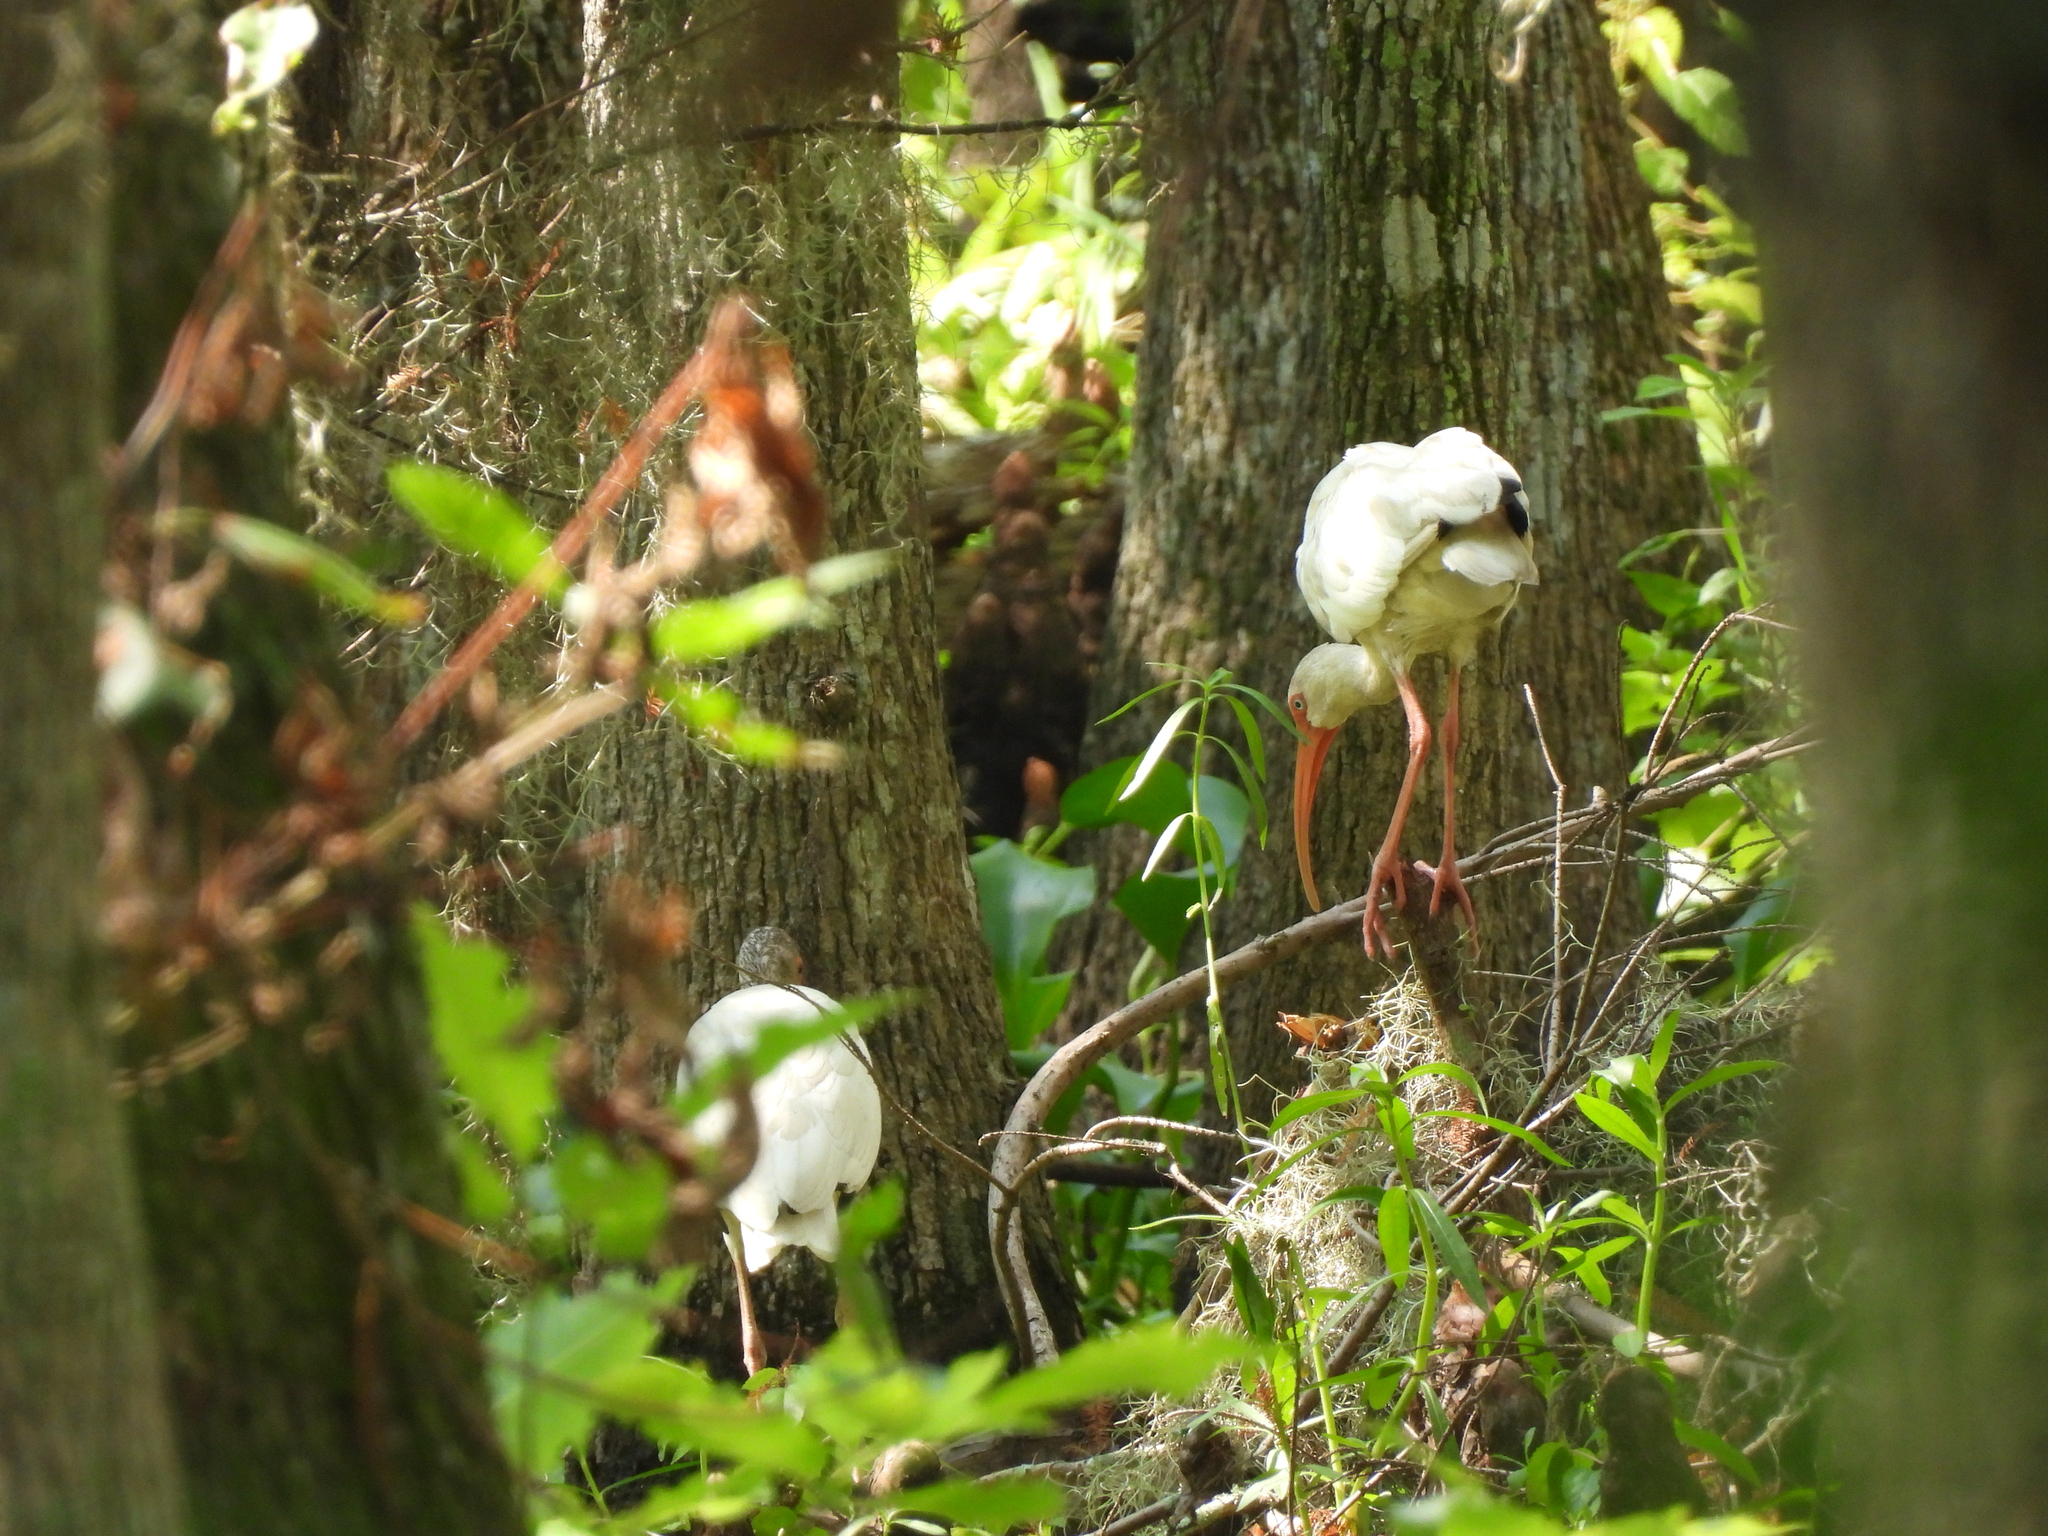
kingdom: Animalia
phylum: Chordata
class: Aves
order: Pelecaniformes
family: Threskiornithidae
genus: Eudocimus
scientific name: Eudocimus albus
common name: White ibis
